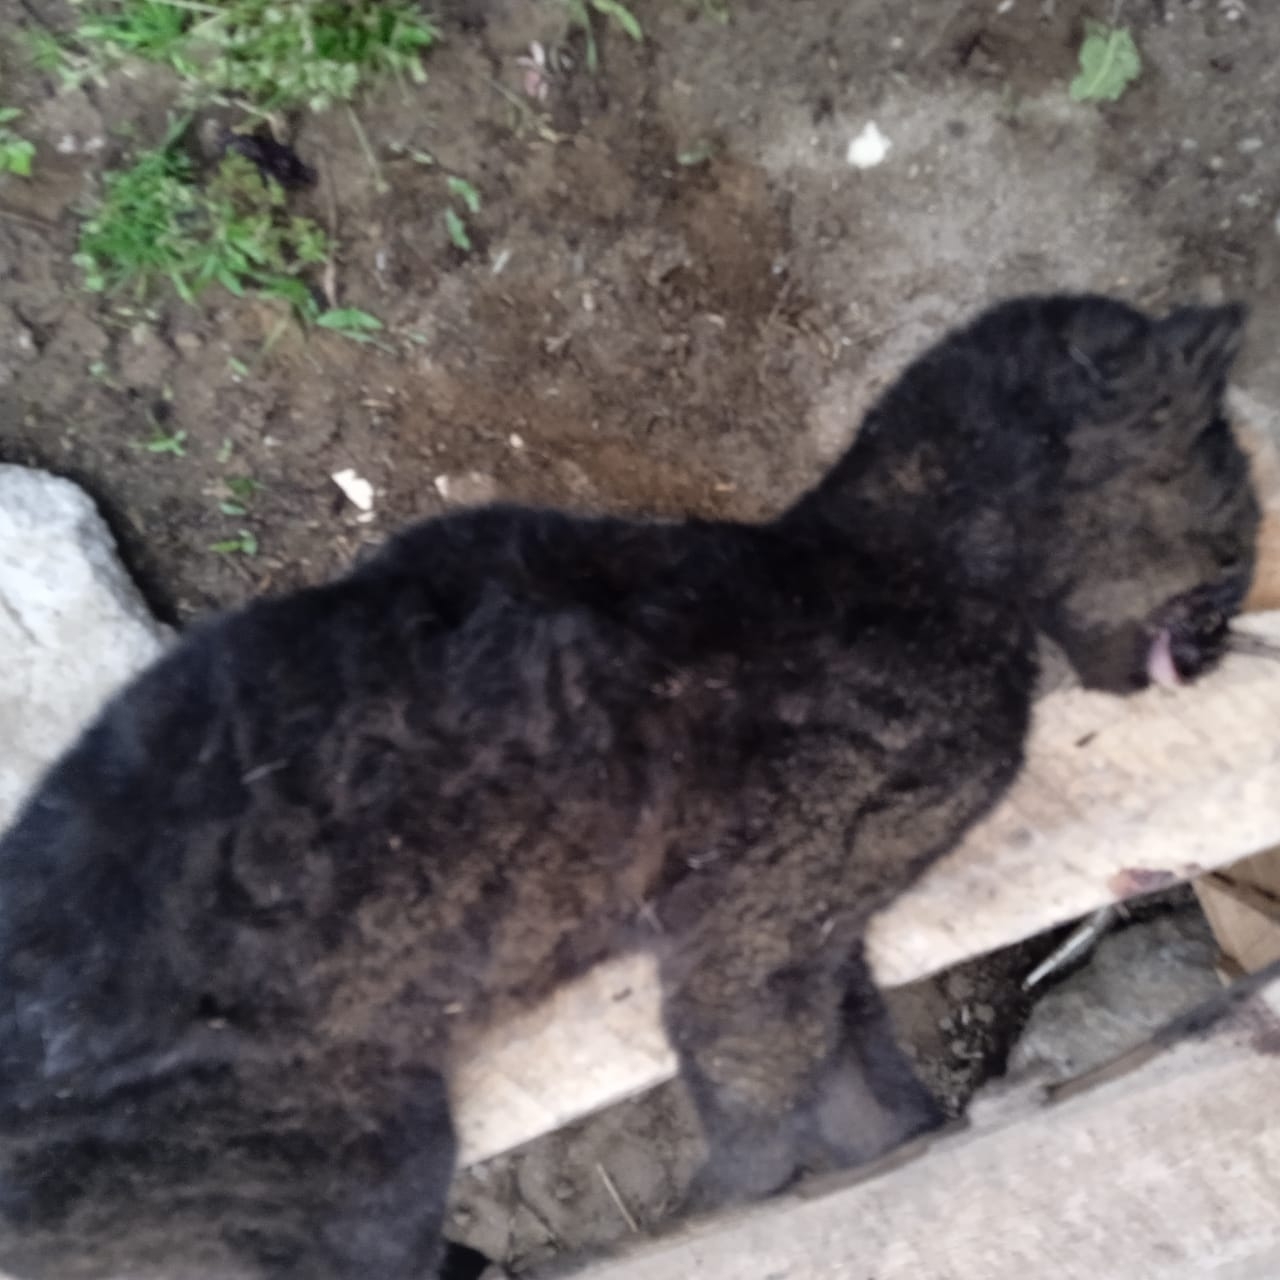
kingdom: Animalia
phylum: Chordata
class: Mammalia
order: Carnivora
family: Felidae
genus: Leopardus
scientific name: Leopardus tigrinus
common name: Oncilla
